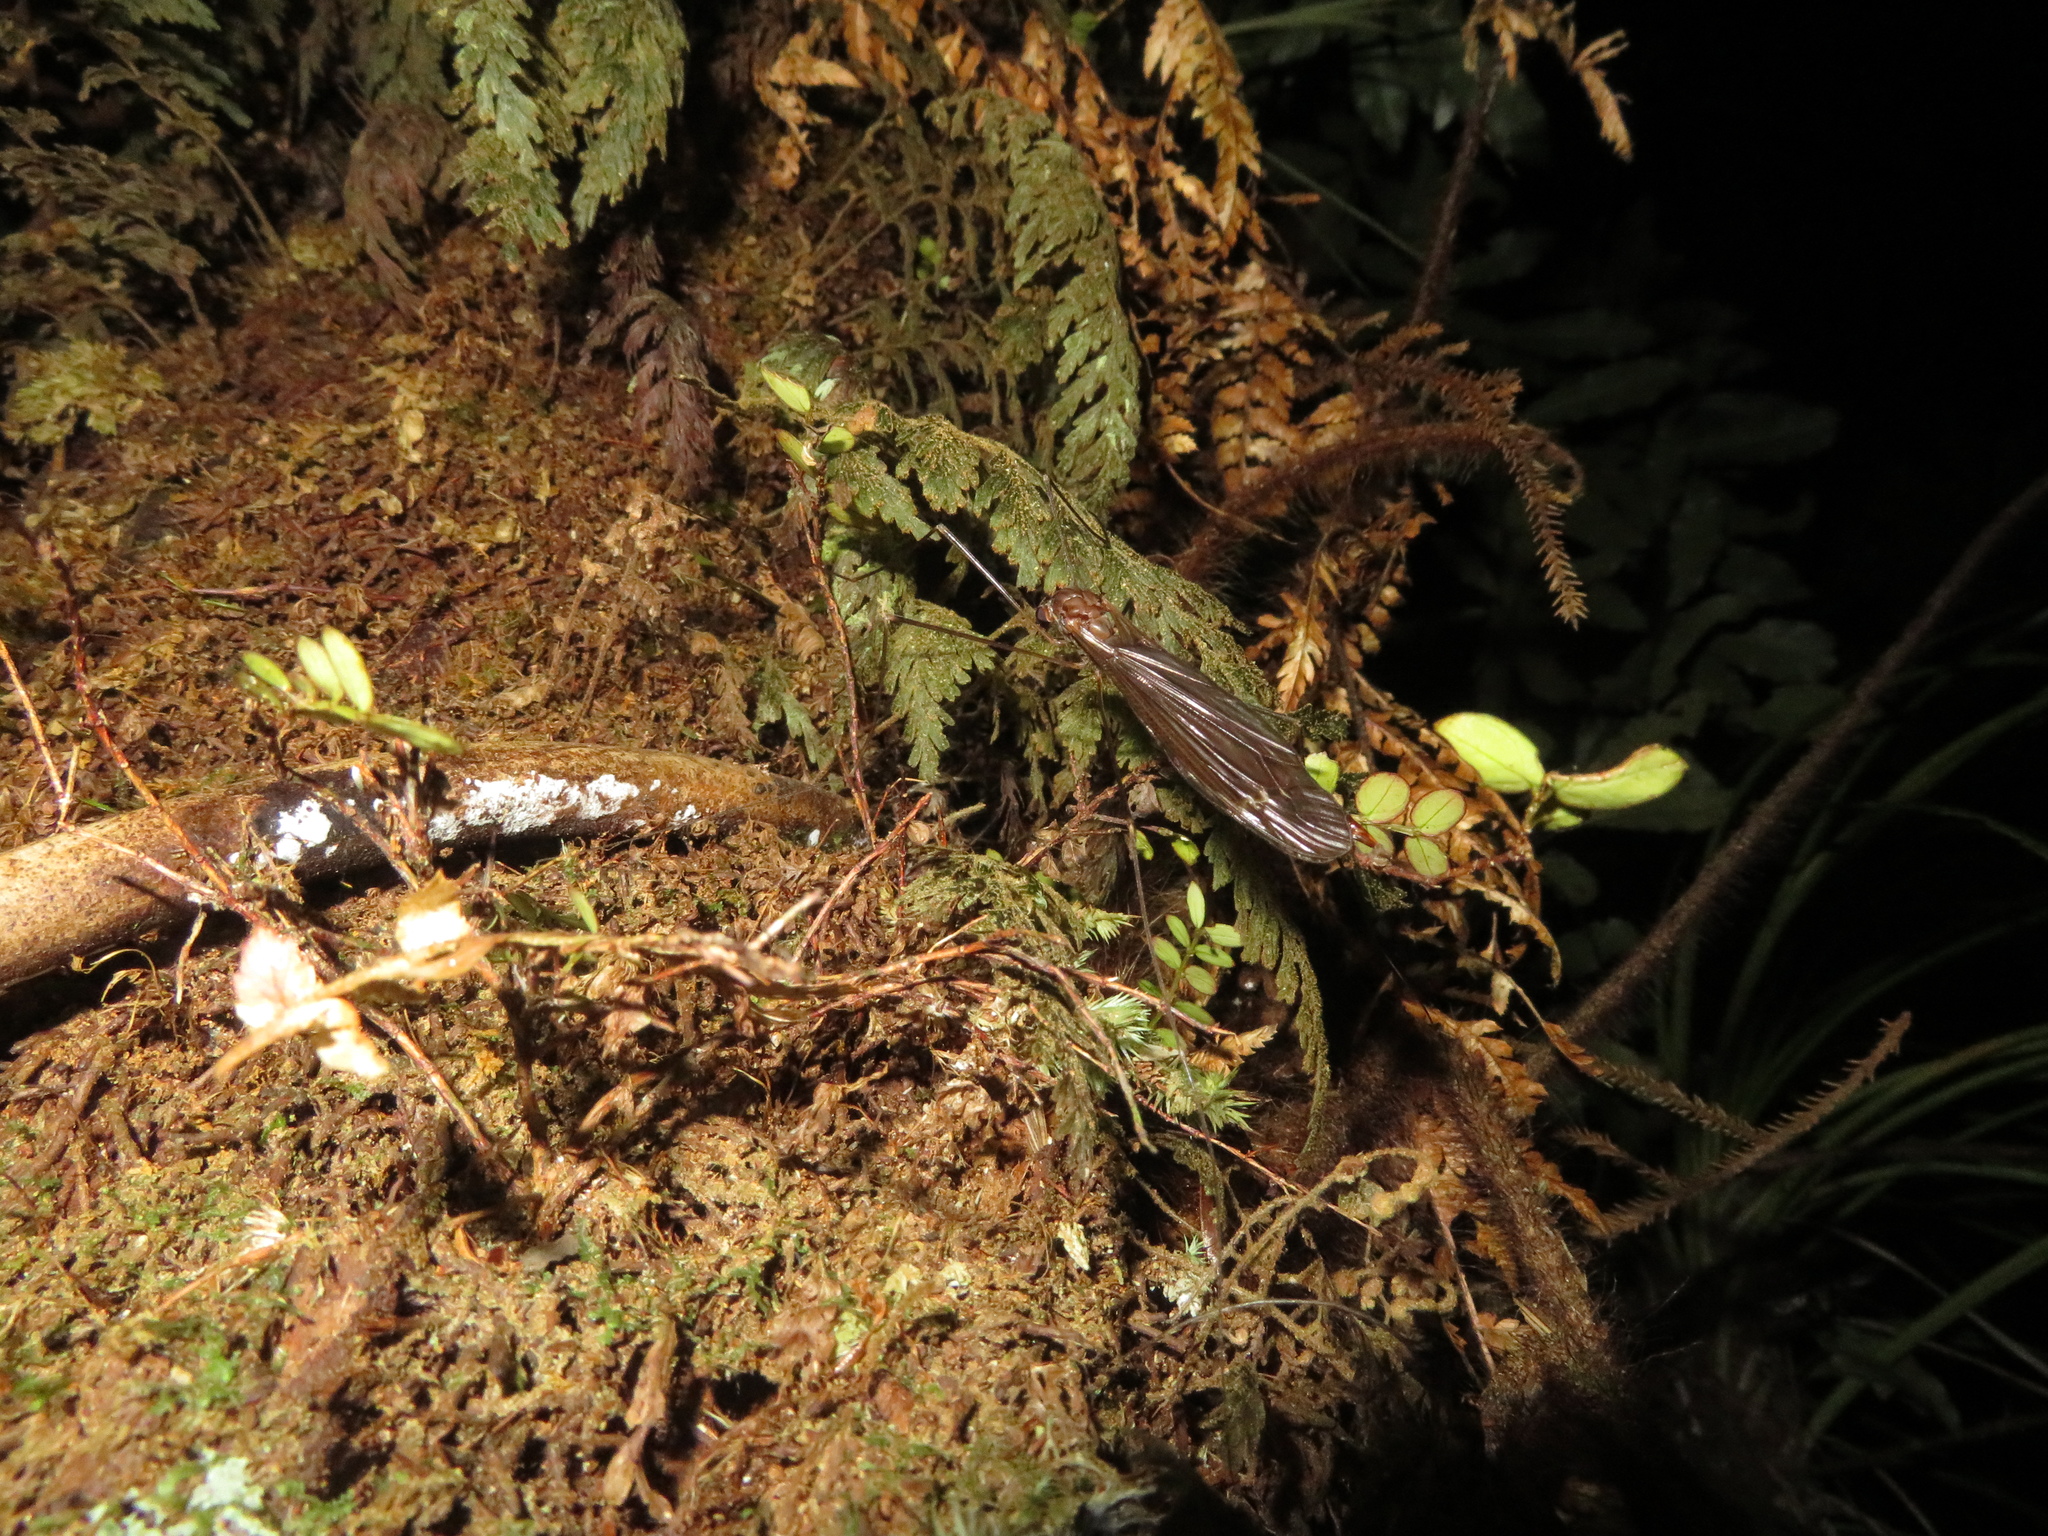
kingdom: Animalia
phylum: Arthropoda
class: Insecta
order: Diptera
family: Tipulidae
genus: Austrotipula
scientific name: Austrotipula hudsoni
